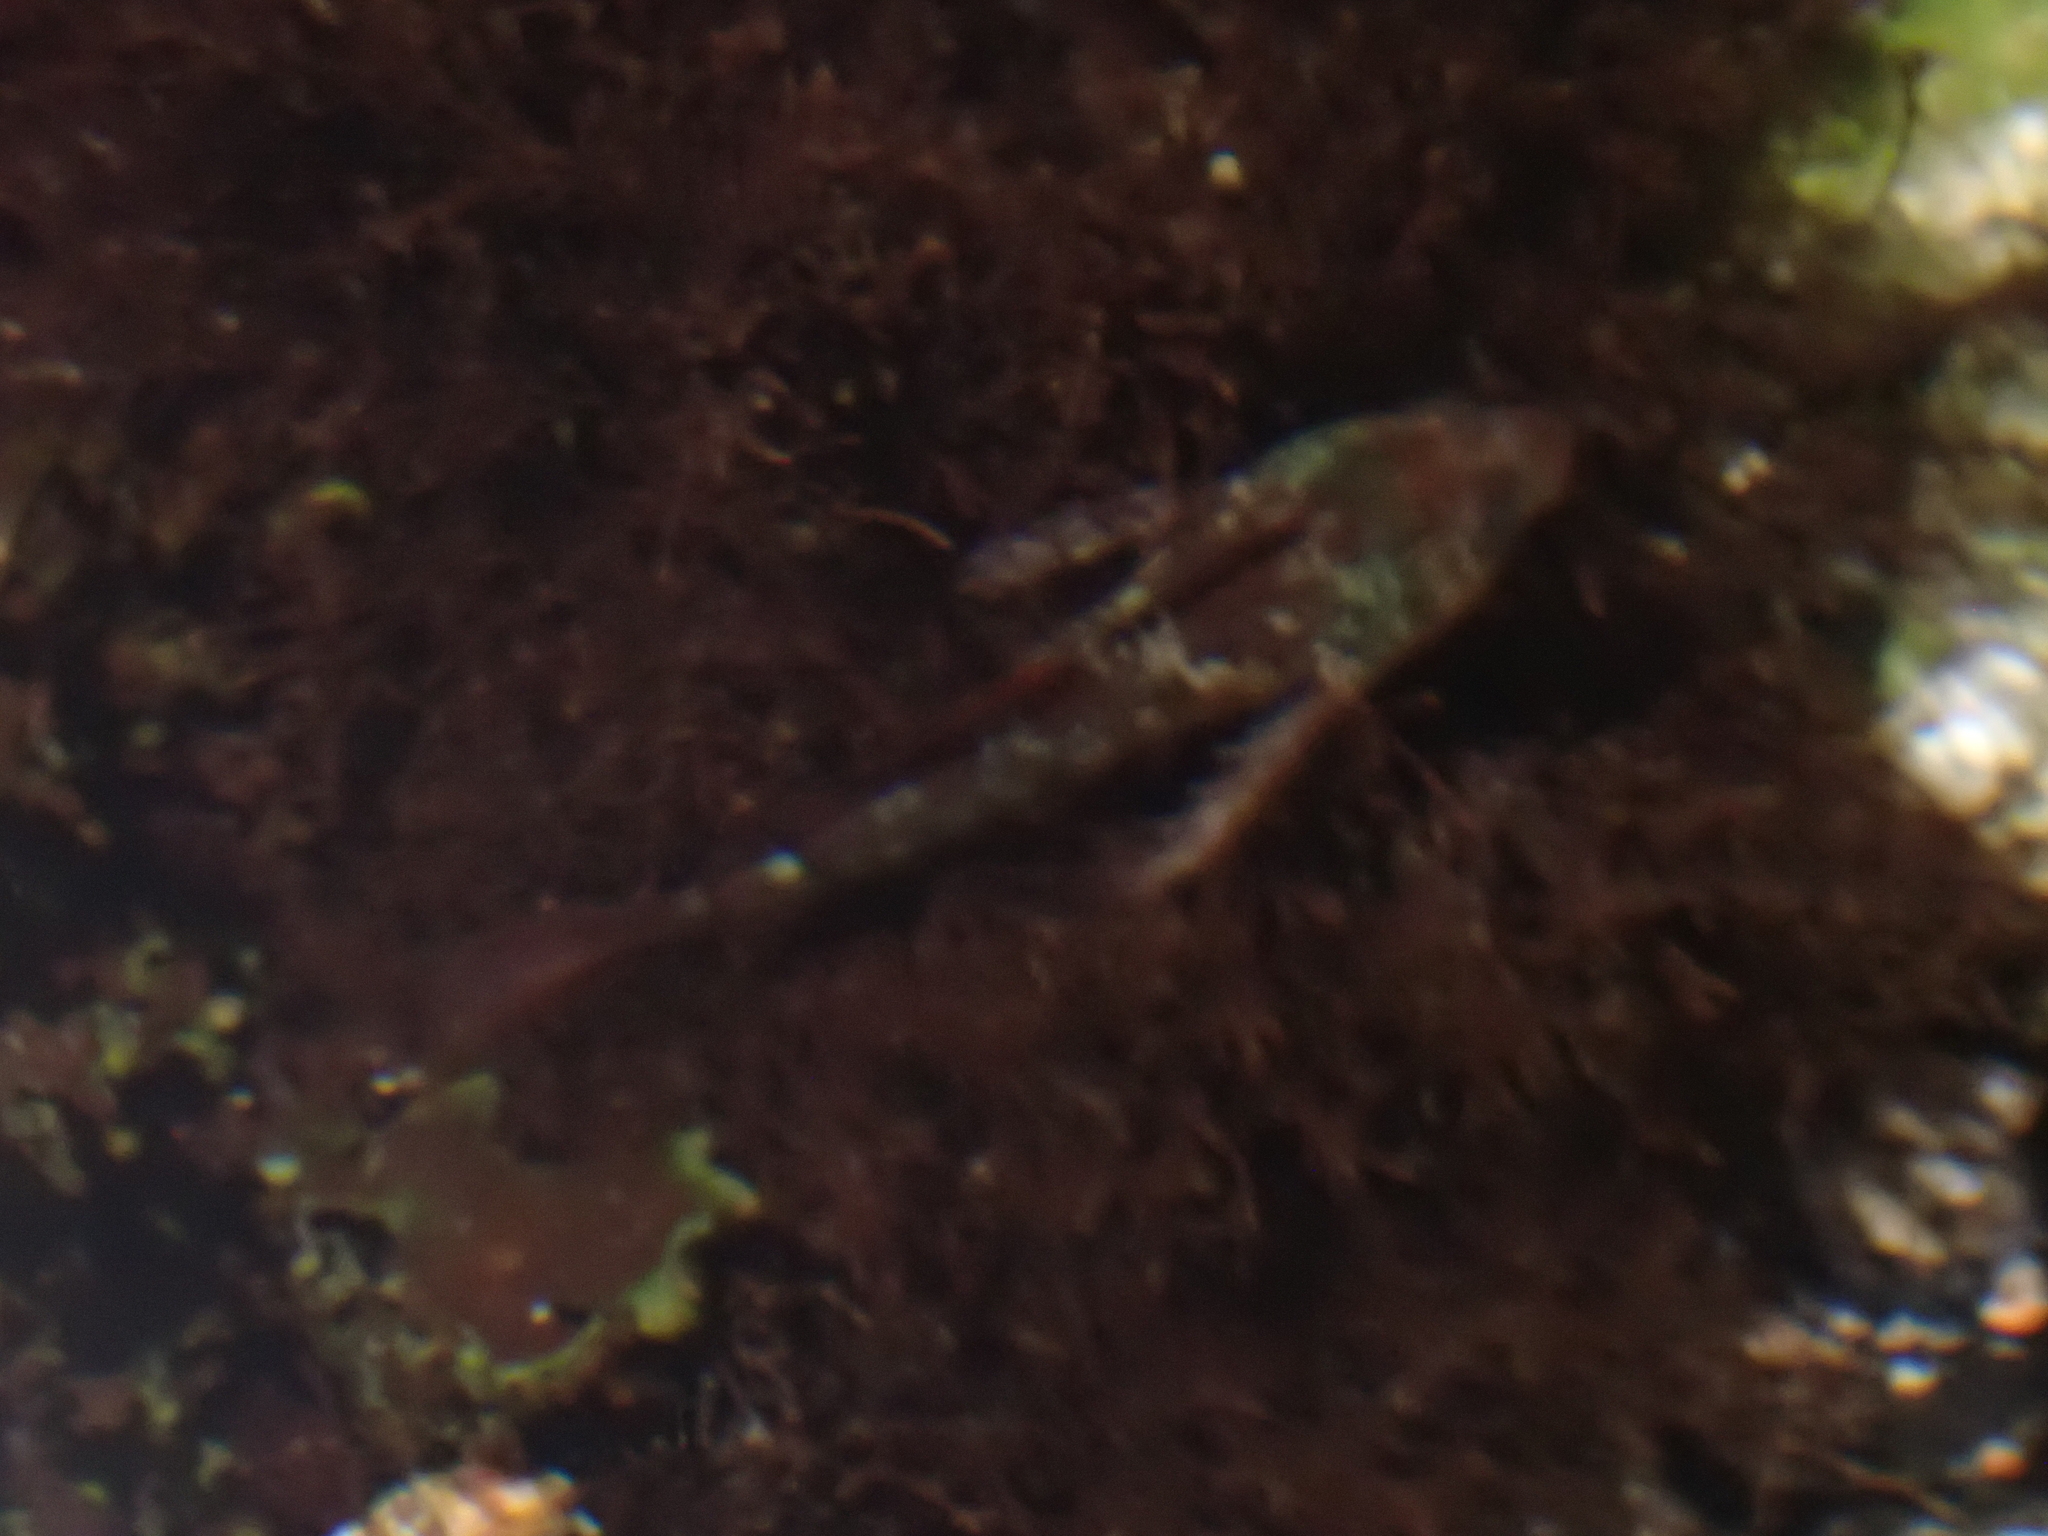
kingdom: Animalia
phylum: Chordata
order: Scorpaeniformes
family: Cottidae
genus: Oligocottus
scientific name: Oligocottus maculosus
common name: Tidepool sculpin
